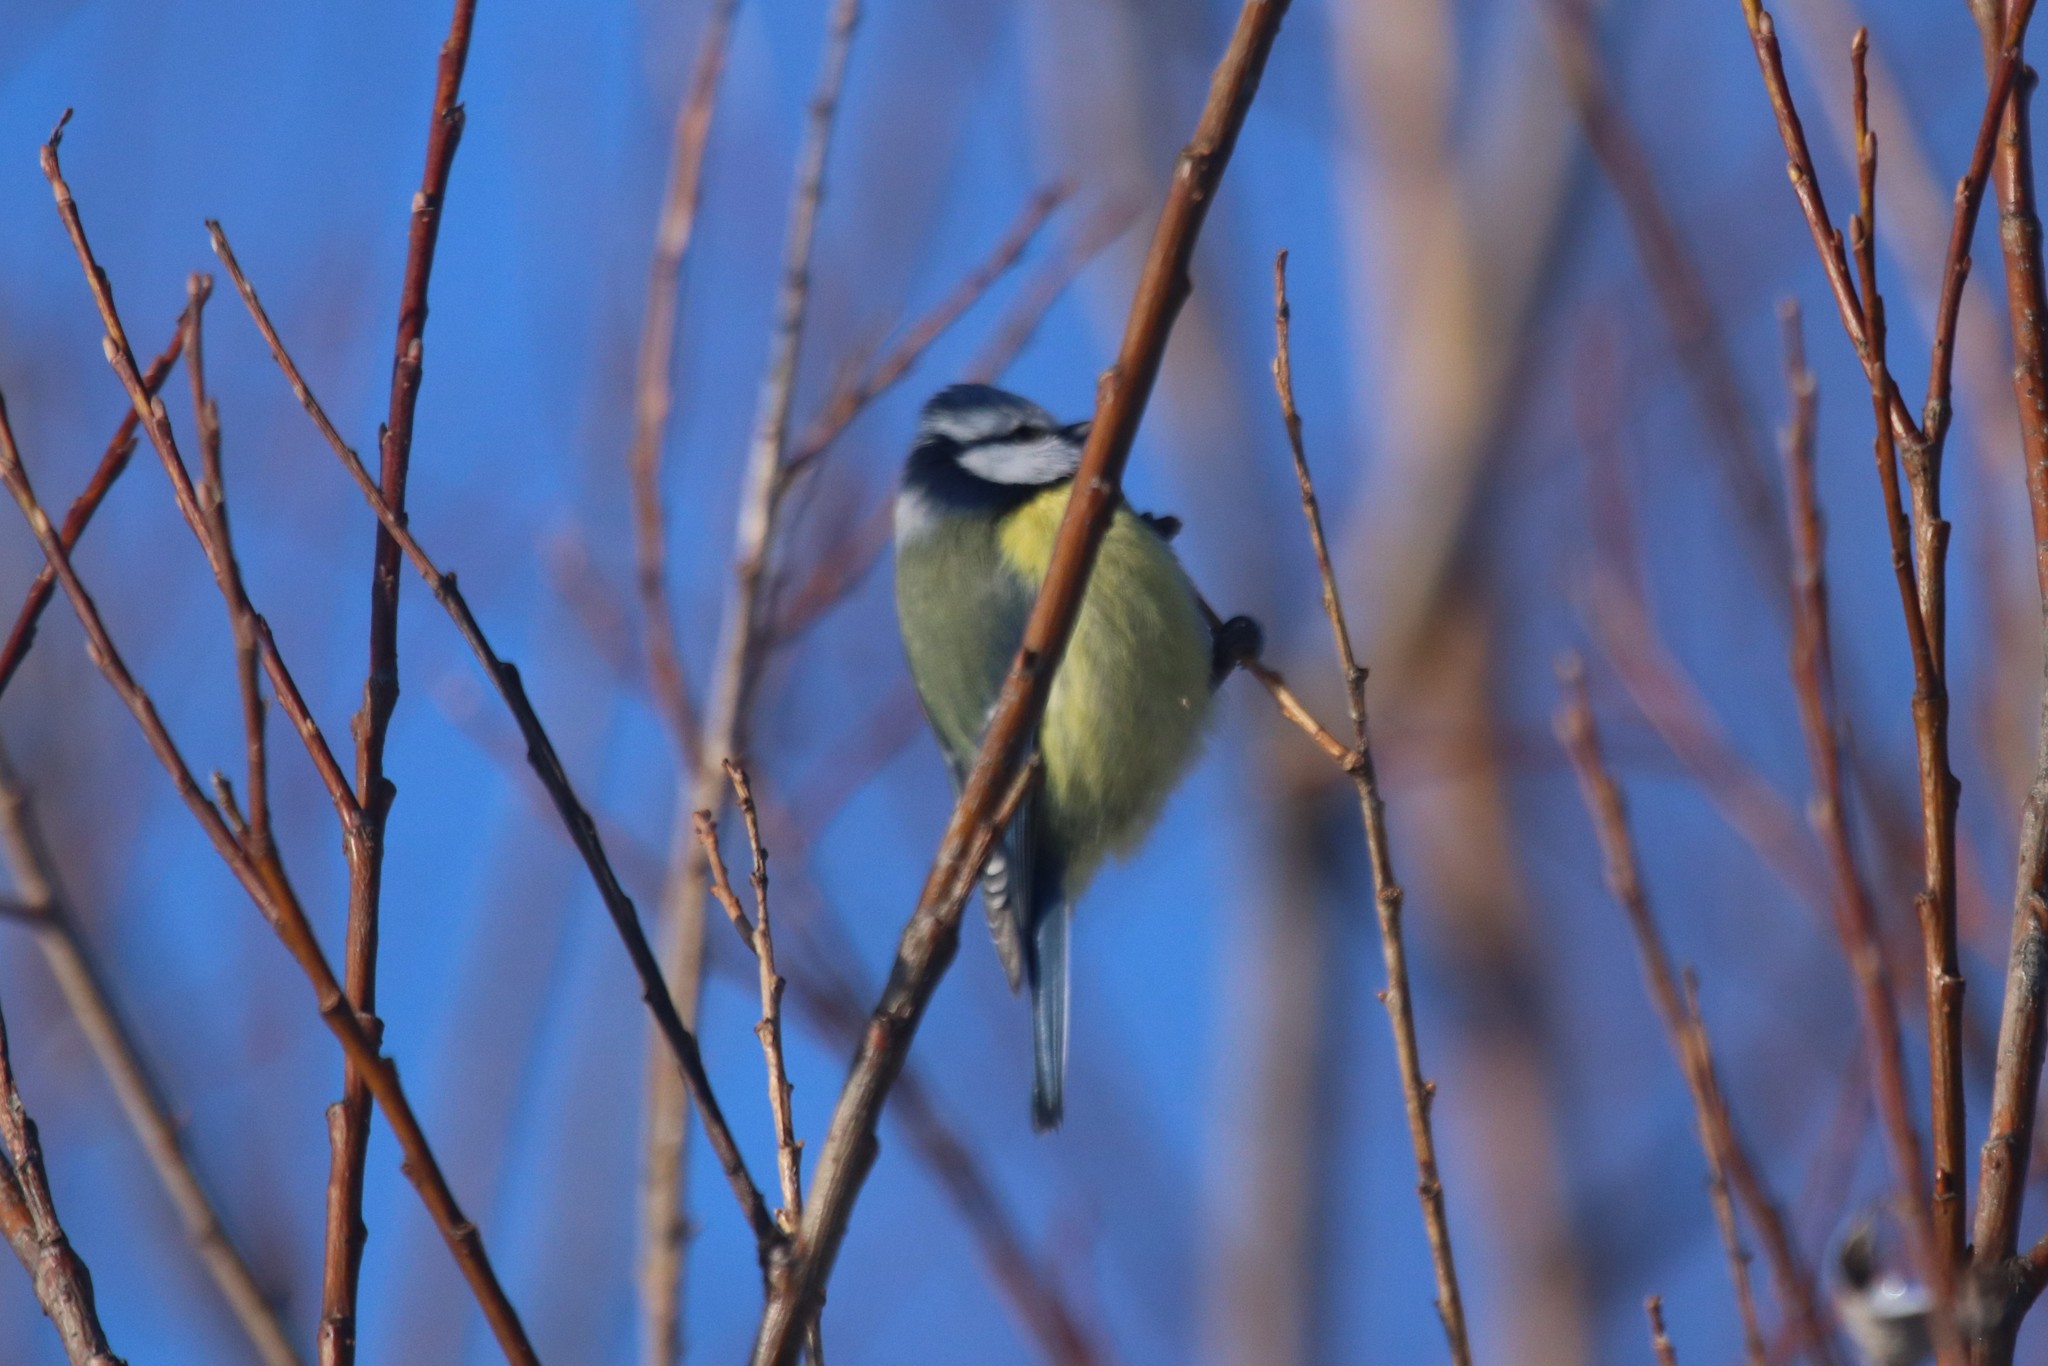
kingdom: Animalia
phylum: Chordata
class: Aves
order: Passeriformes
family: Paridae
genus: Cyanistes
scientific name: Cyanistes caeruleus
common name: Eurasian blue tit
